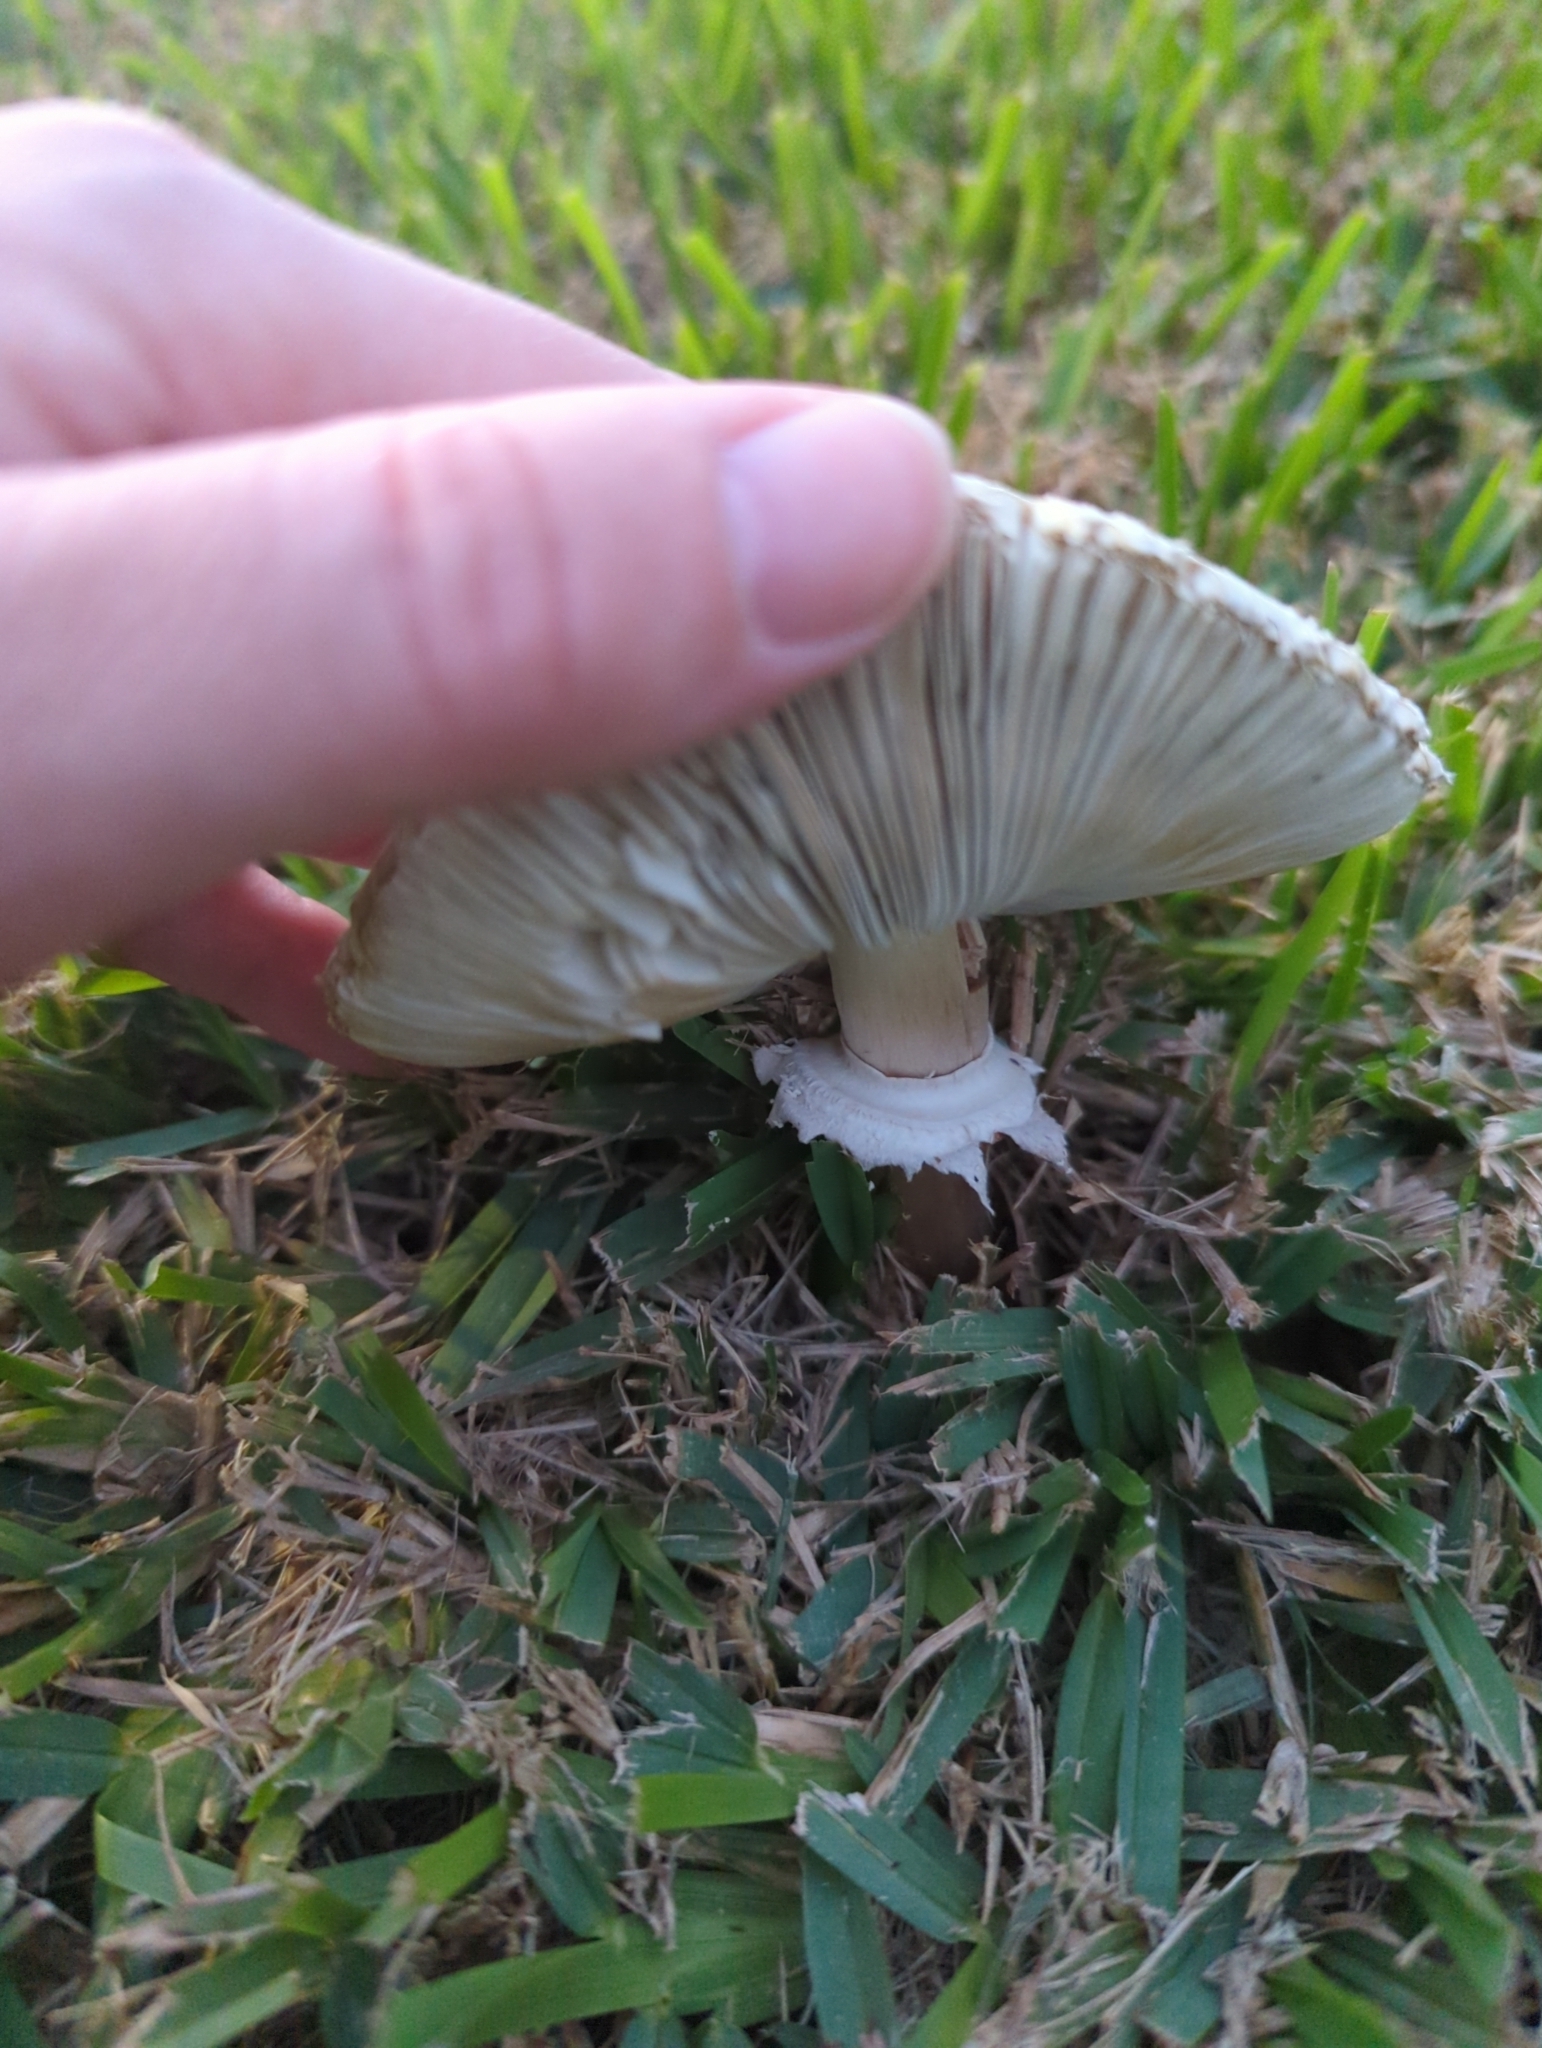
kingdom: Fungi
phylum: Basidiomycota
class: Agaricomycetes
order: Agaricales
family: Agaricaceae
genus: Chlorophyllum
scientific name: Chlorophyllum molybdites
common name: False parasol
